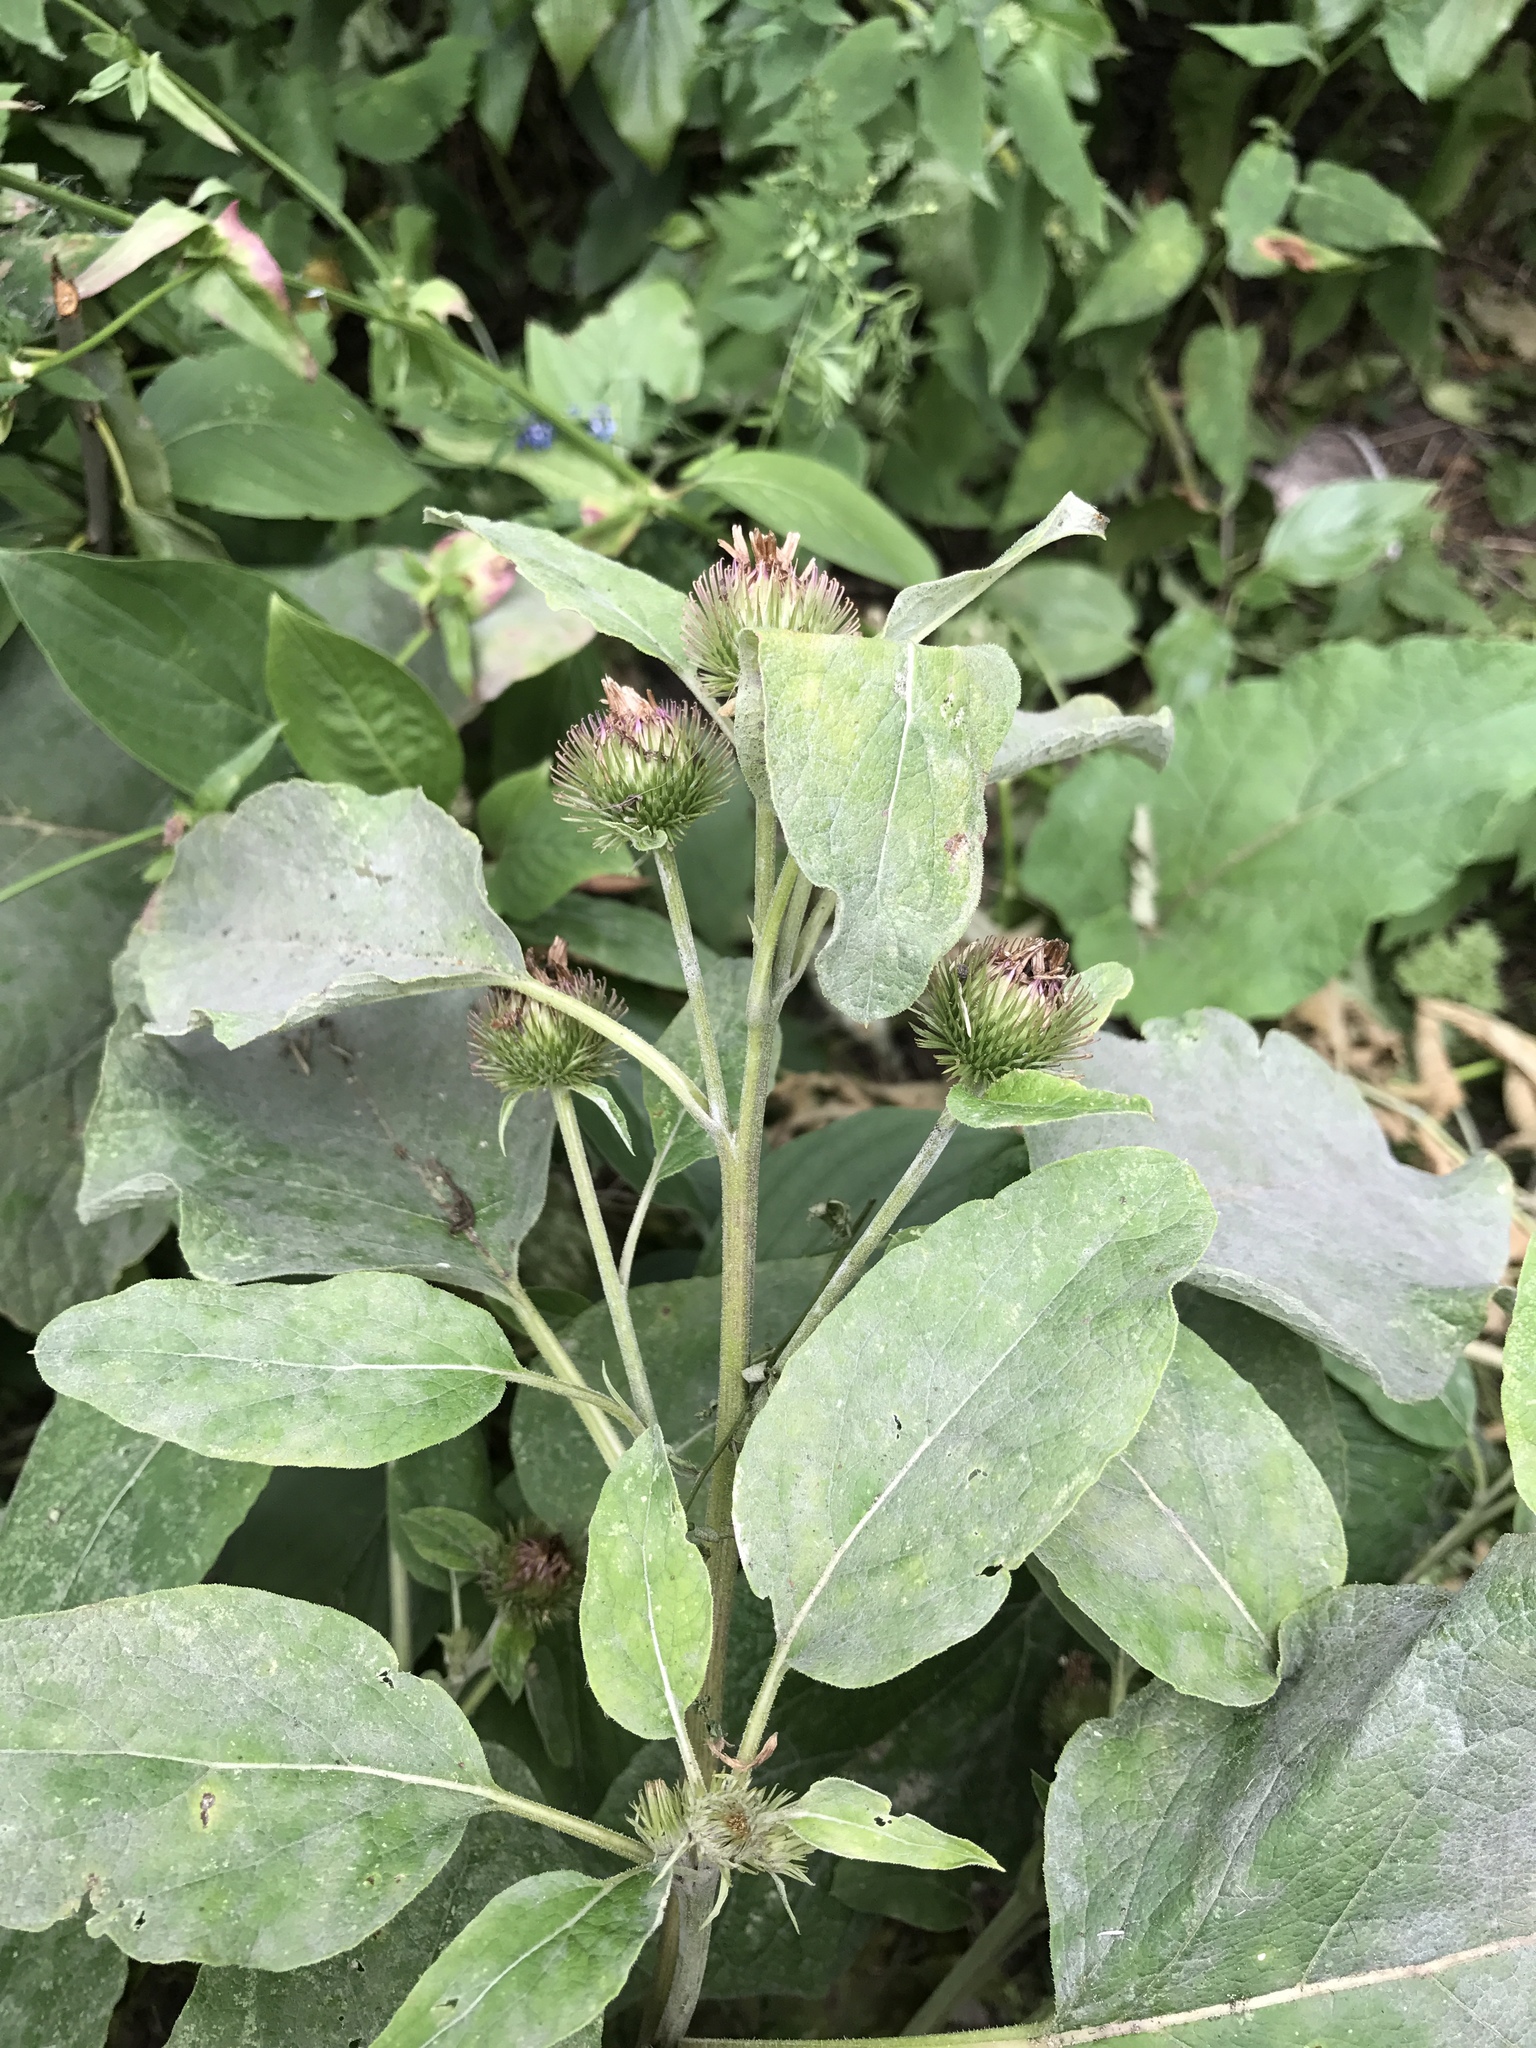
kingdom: Plantae
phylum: Tracheophyta
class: Magnoliopsida
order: Asterales
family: Asteraceae
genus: Arctium
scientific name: Arctium lappa
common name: Greater burdock
